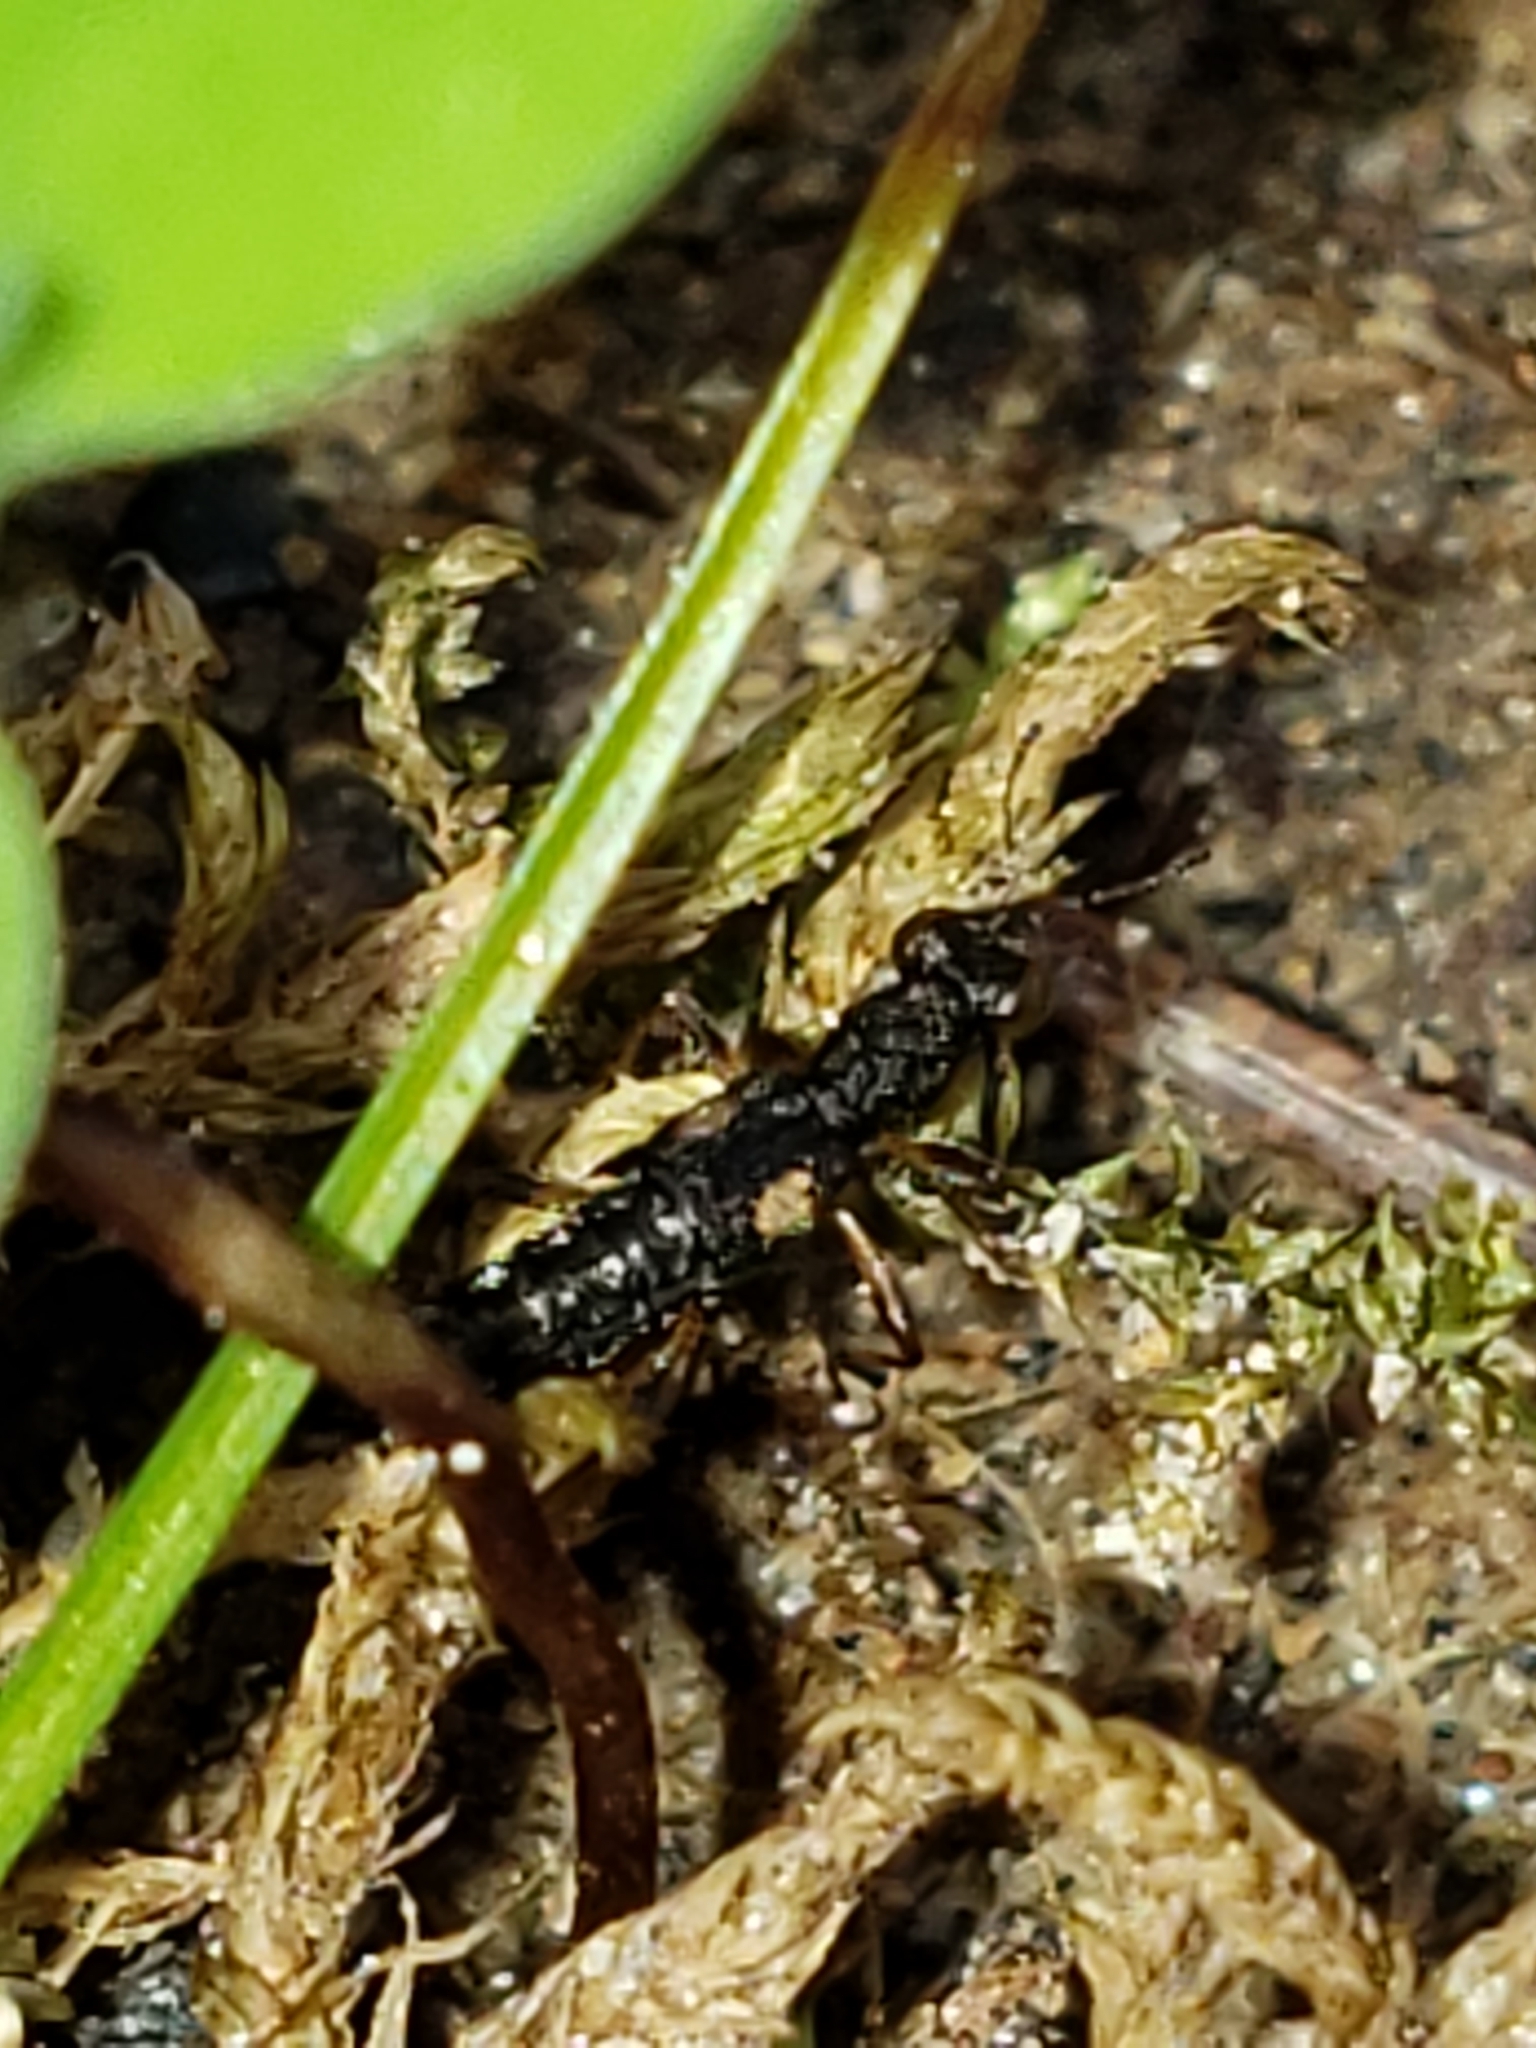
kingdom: Animalia
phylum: Arthropoda
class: Insecta
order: Coleoptera
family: Staphylinidae
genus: Stenus
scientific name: Stenus colon
